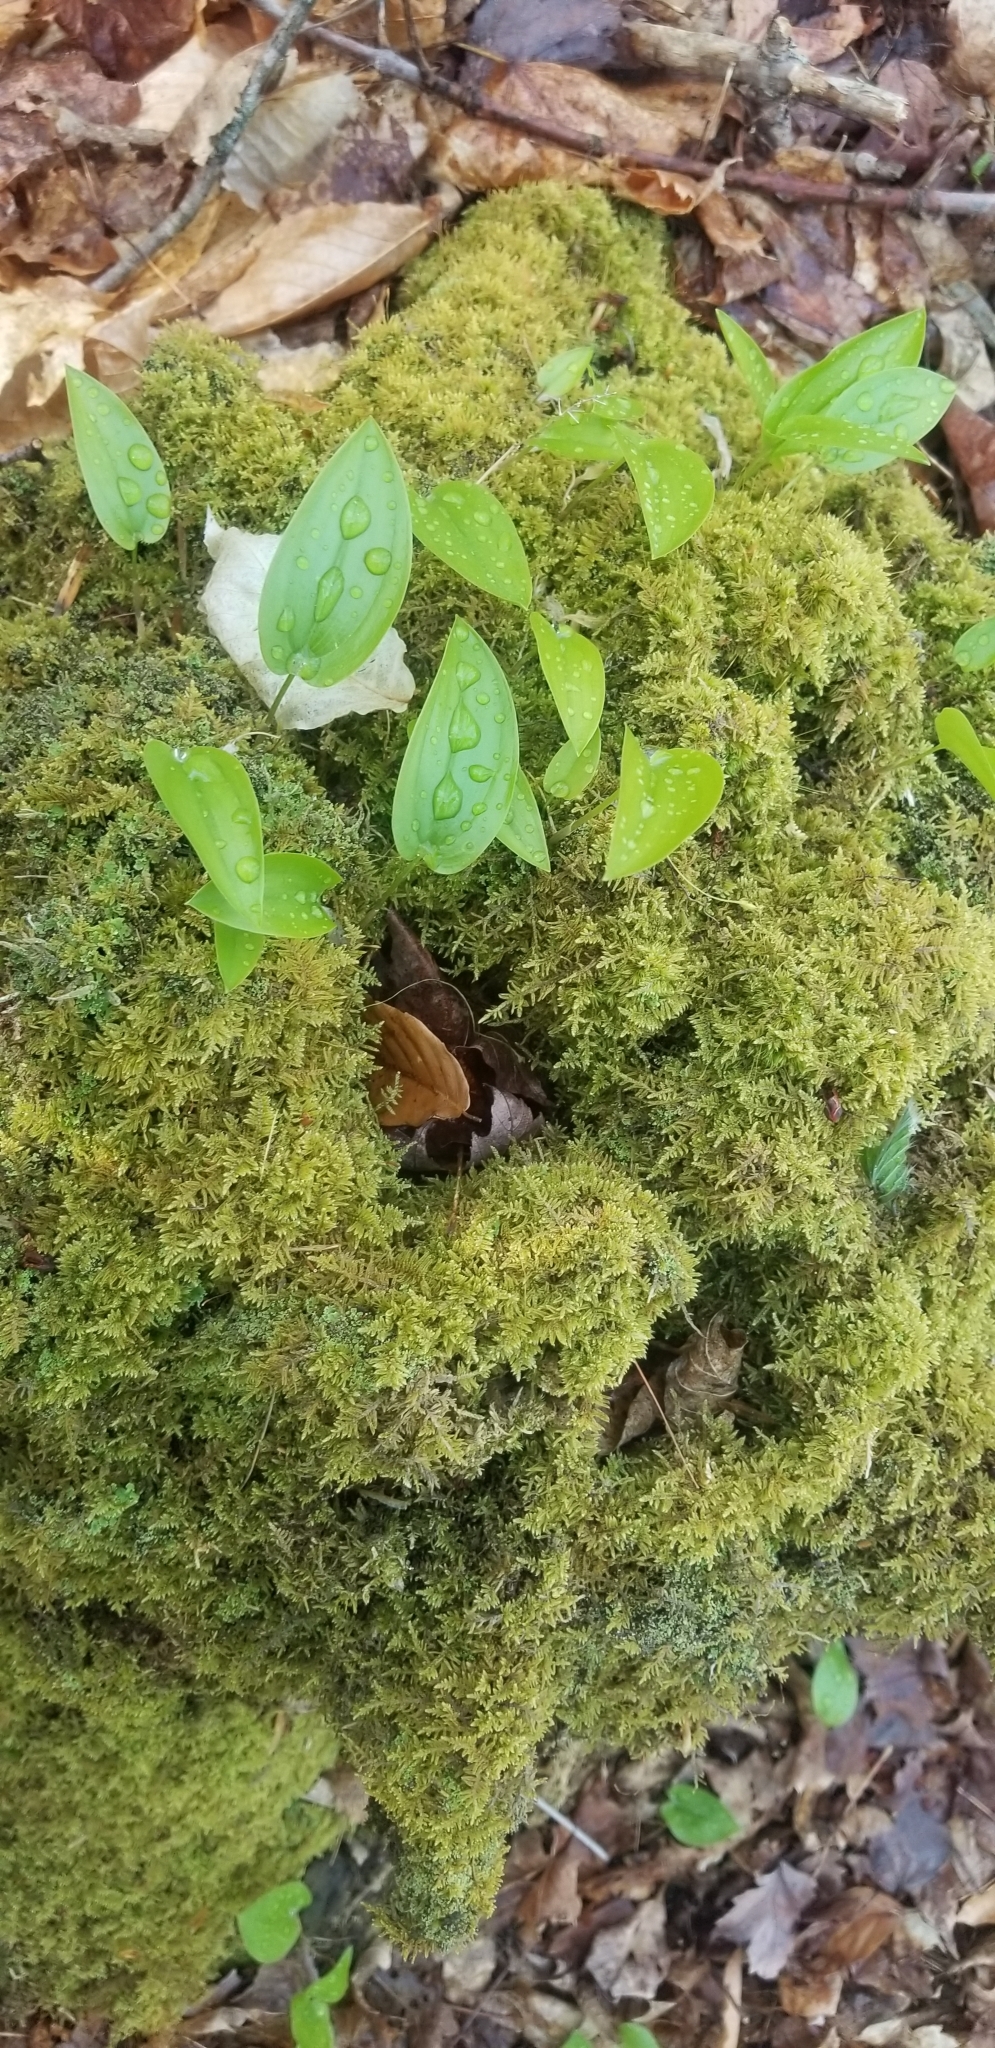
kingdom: Plantae
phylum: Tracheophyta
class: Liliopsida
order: Asparagales
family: Asparagaceae
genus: Maianthemum
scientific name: Maianthemum canadense
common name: False lily-of-the-valley
